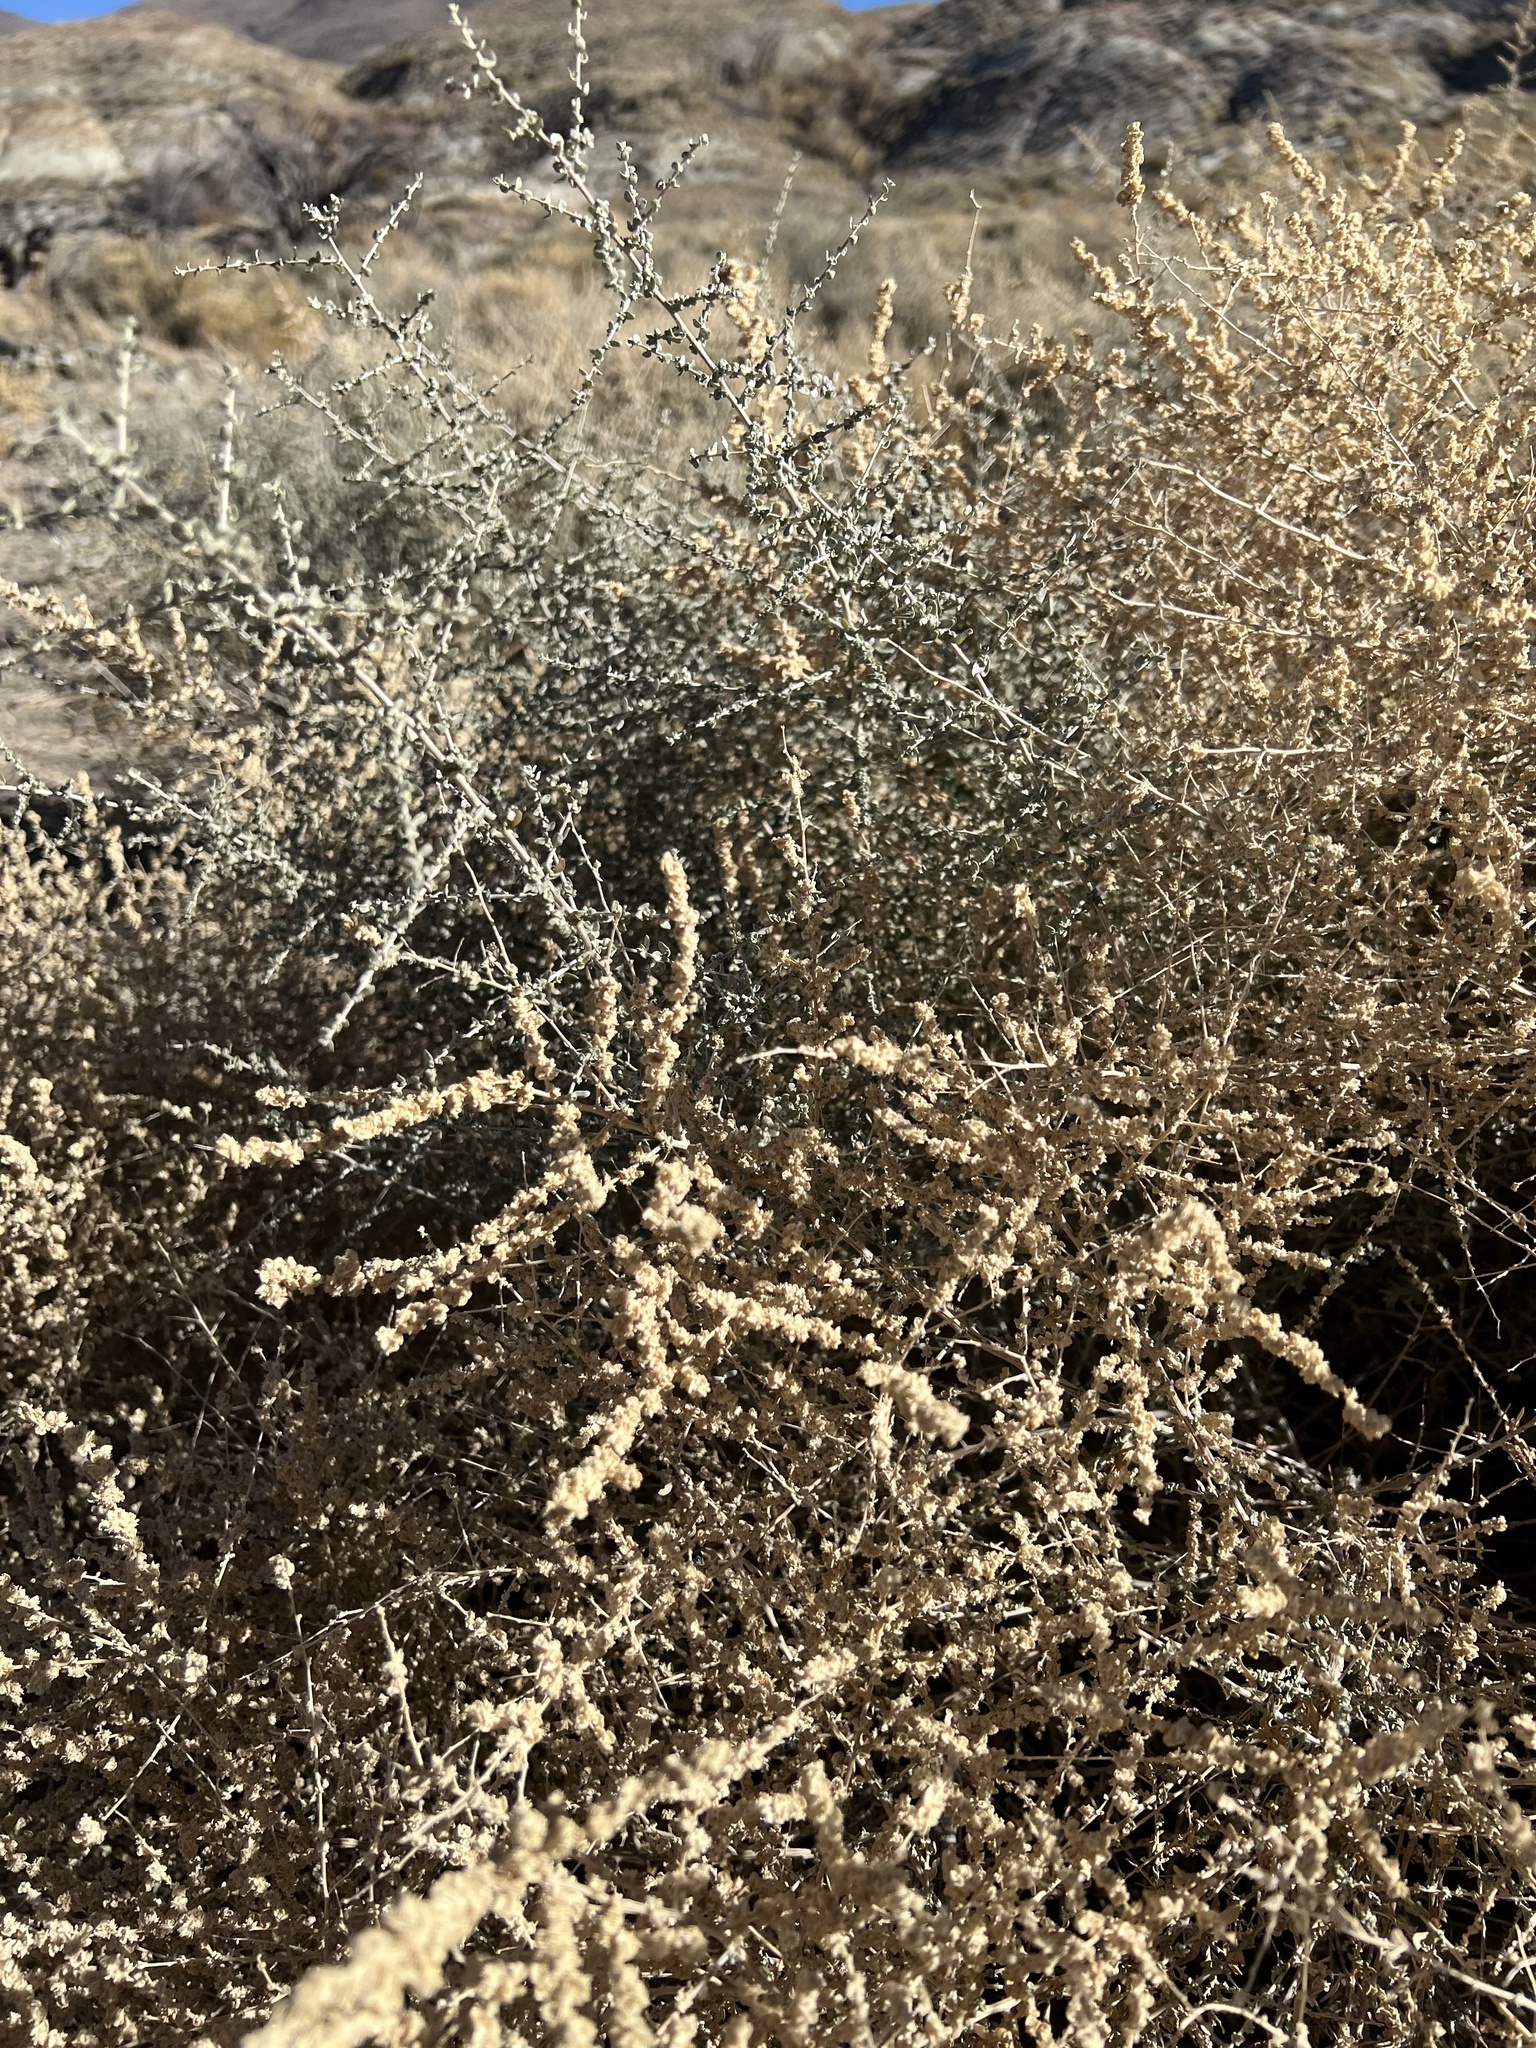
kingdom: Plantae
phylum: Tracheophyta
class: Magnoliopsida
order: Caryophyllales
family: Amaranthaceae
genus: Atriplex
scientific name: Atriplex polycarpa
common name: Desert saltbush
